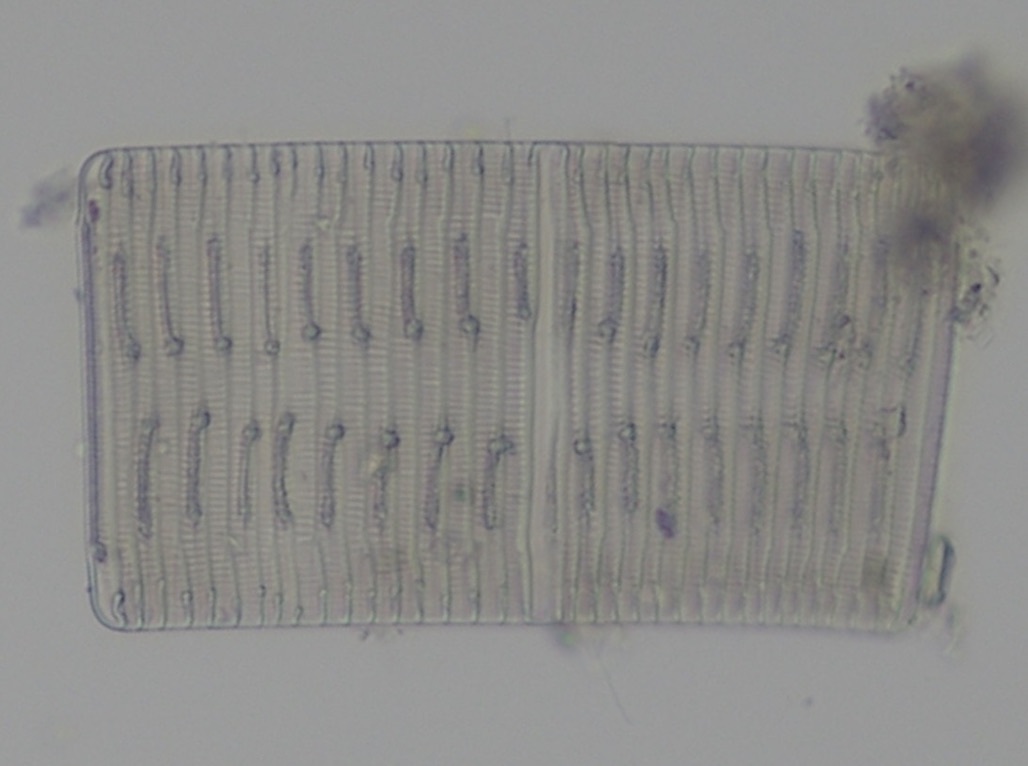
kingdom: Chromista
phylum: Ochrophyta
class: Bacillariophyceae
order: Rhabdonematales
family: Rhabdonemataceae
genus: Rhabdonema
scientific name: Rhabdonema adriaticum
